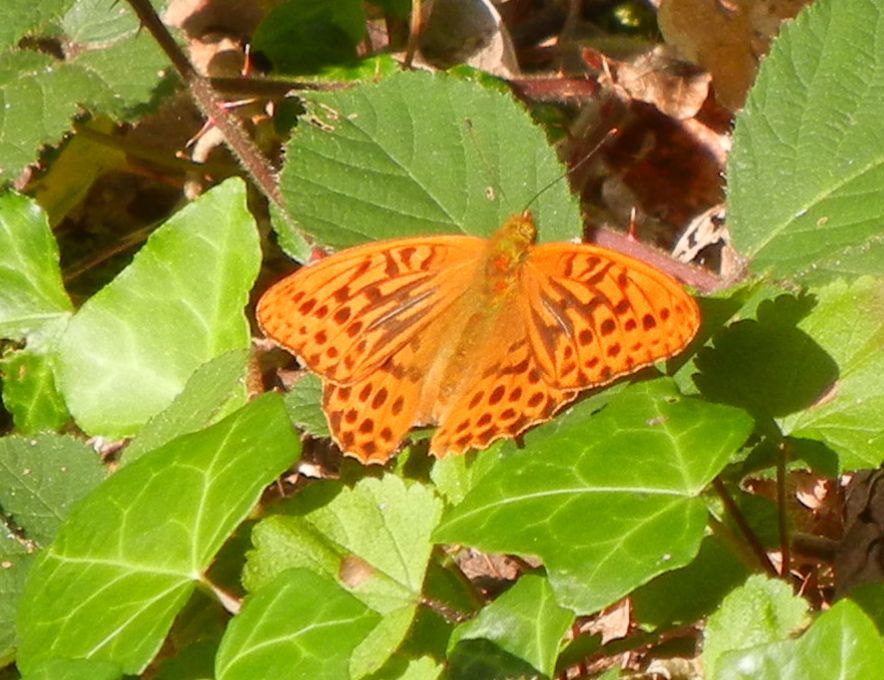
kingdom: Animalia
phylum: Arthropoda
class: Insecta
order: Lepidoptera
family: Nymphalidae
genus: Argynnis
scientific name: Argynnis paphia
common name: Silver-washed fritillary
